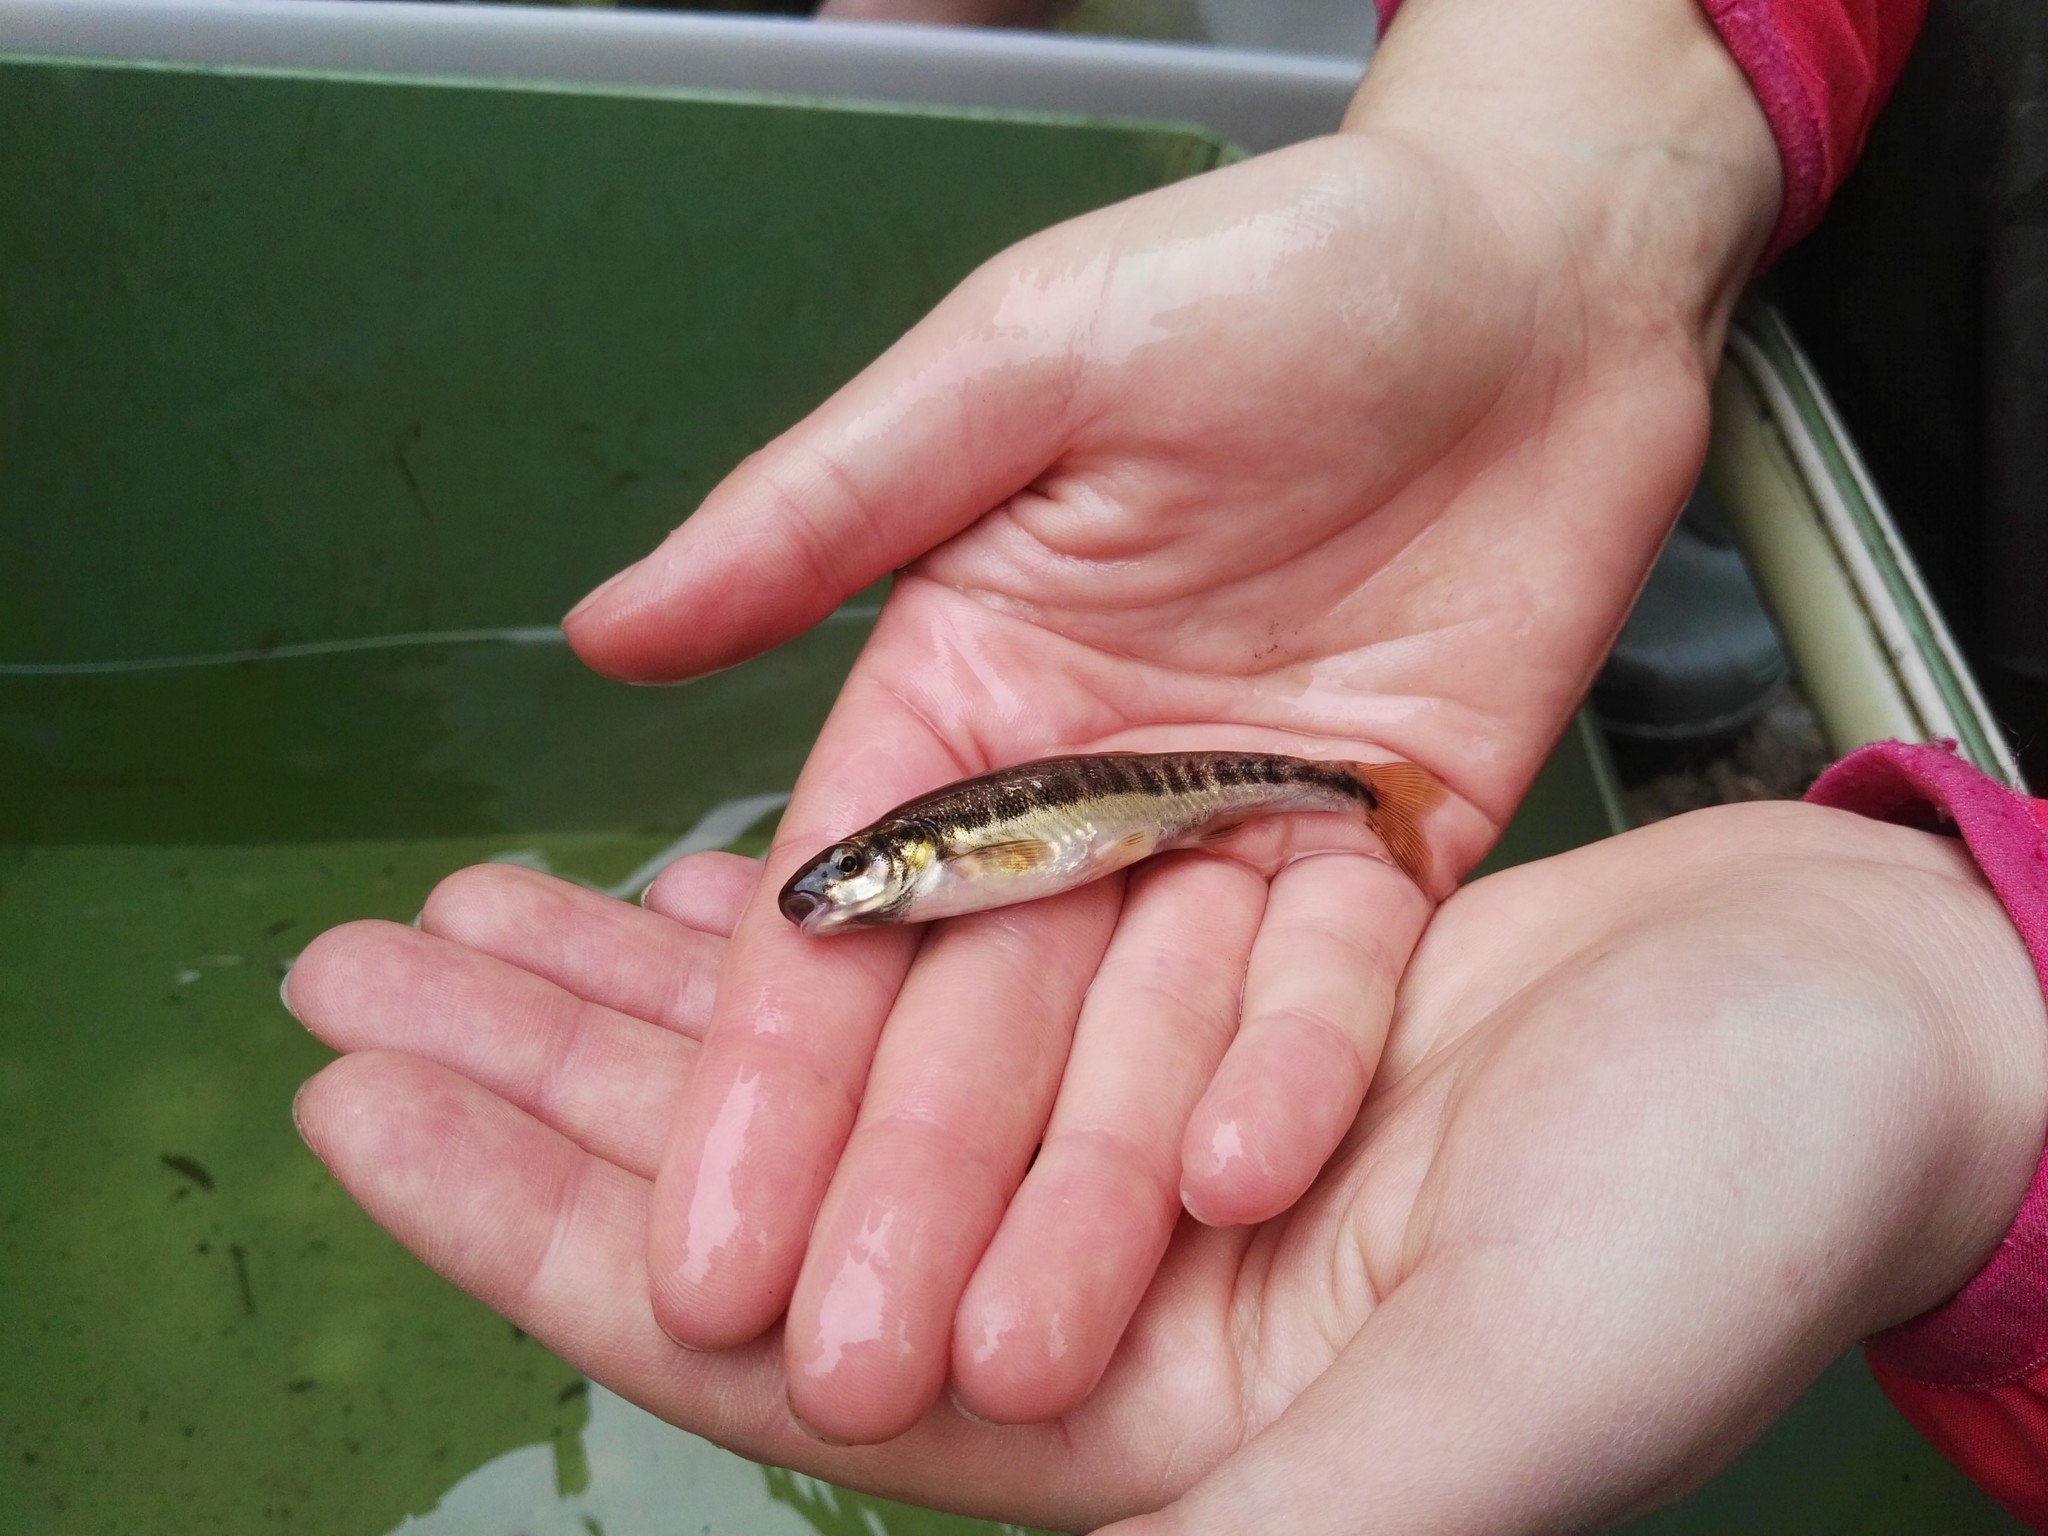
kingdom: Animalia
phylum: Chordata
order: Cypriniformes
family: Cyprinidae
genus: Phoxinus
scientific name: Phoxinus phoxinus
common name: Minnow
